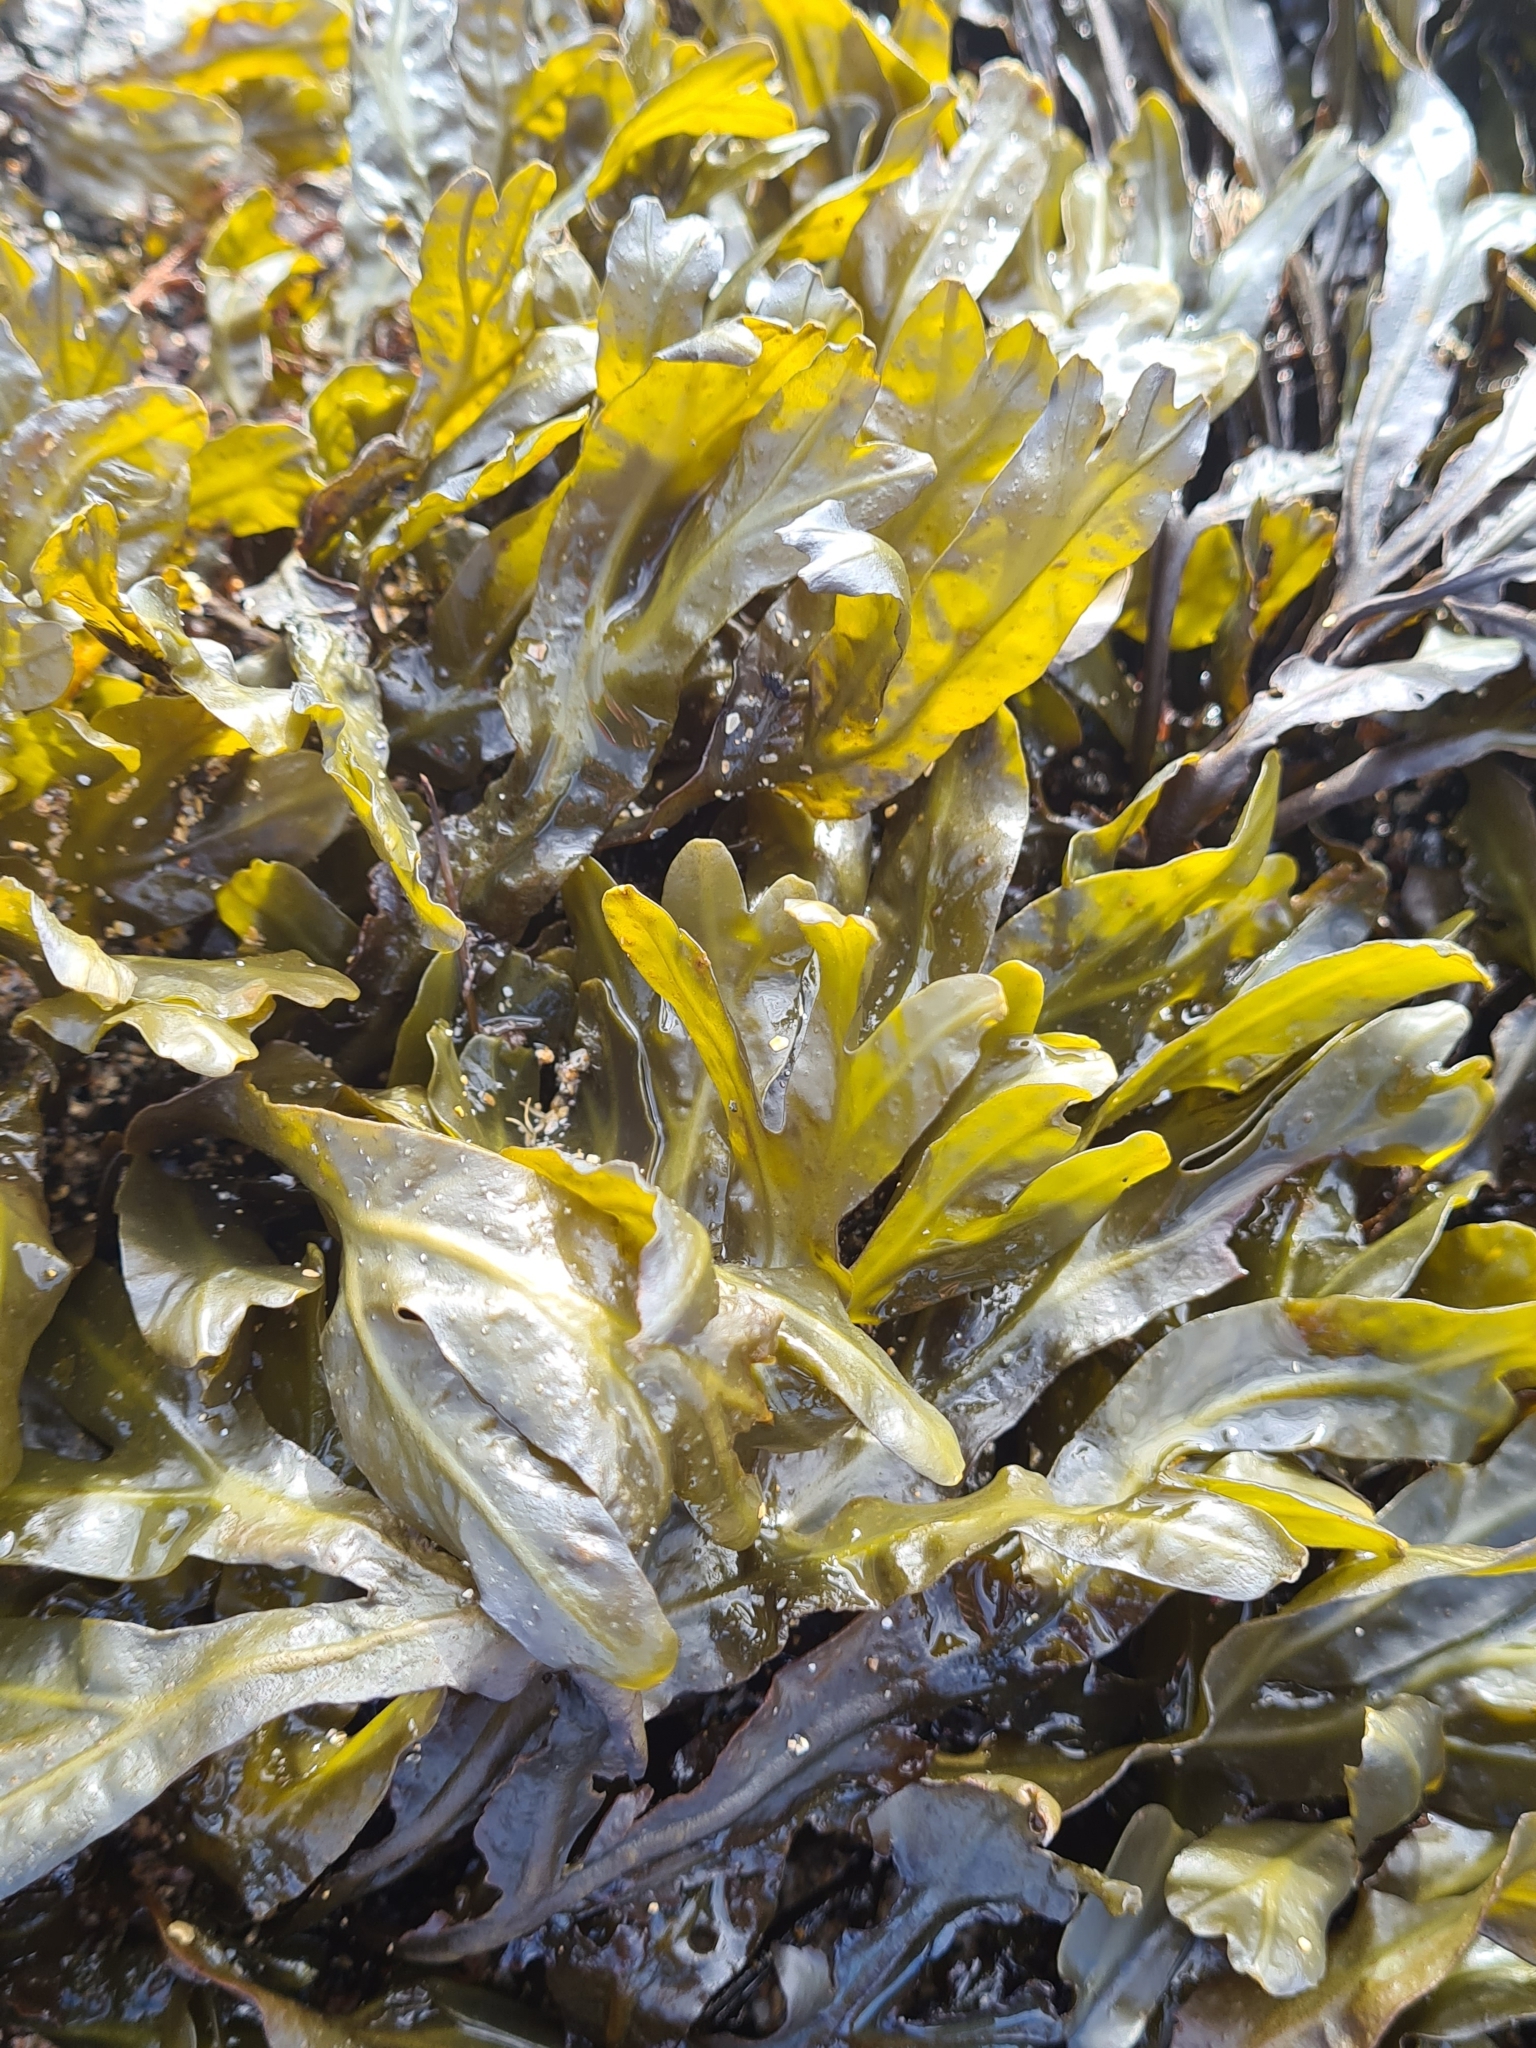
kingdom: Chromista
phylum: Ochrophyta
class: Phaeophyceae
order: Fucales
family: Fucaceae
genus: Fucus
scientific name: Fucus vesiculosus
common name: Bladder wrack
